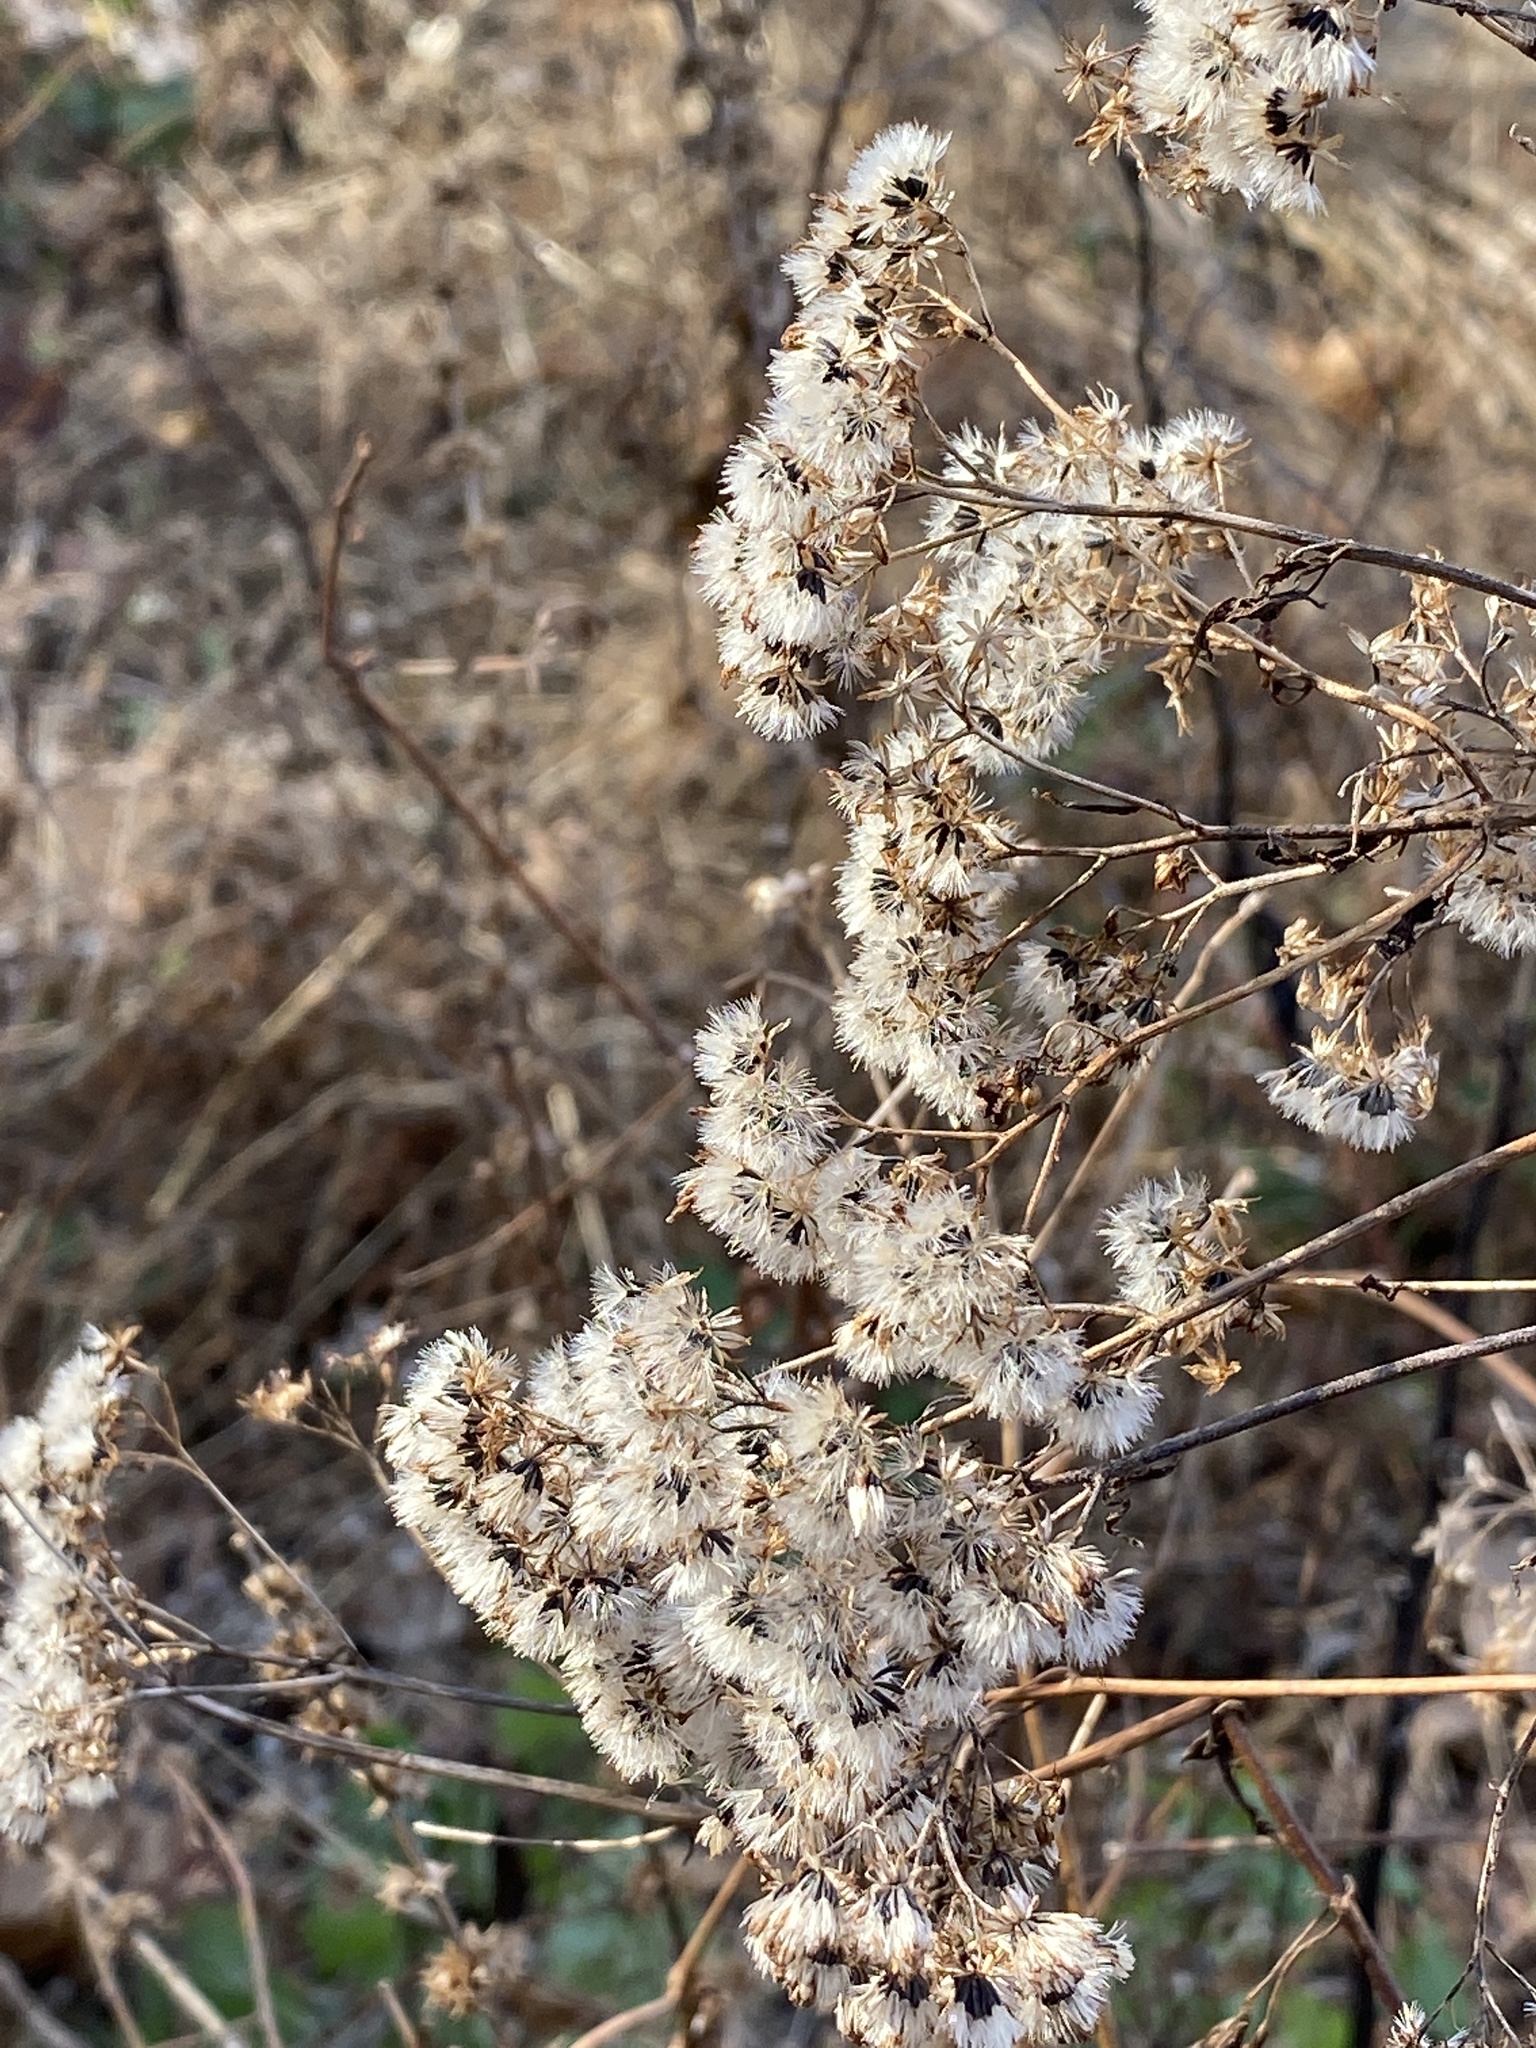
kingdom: Plantae
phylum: Tracheophyta
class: Magnoliopsida
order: Asterales
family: Asteraceae
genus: Ageratina
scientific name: Ageratina altissima
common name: White snakeroot
